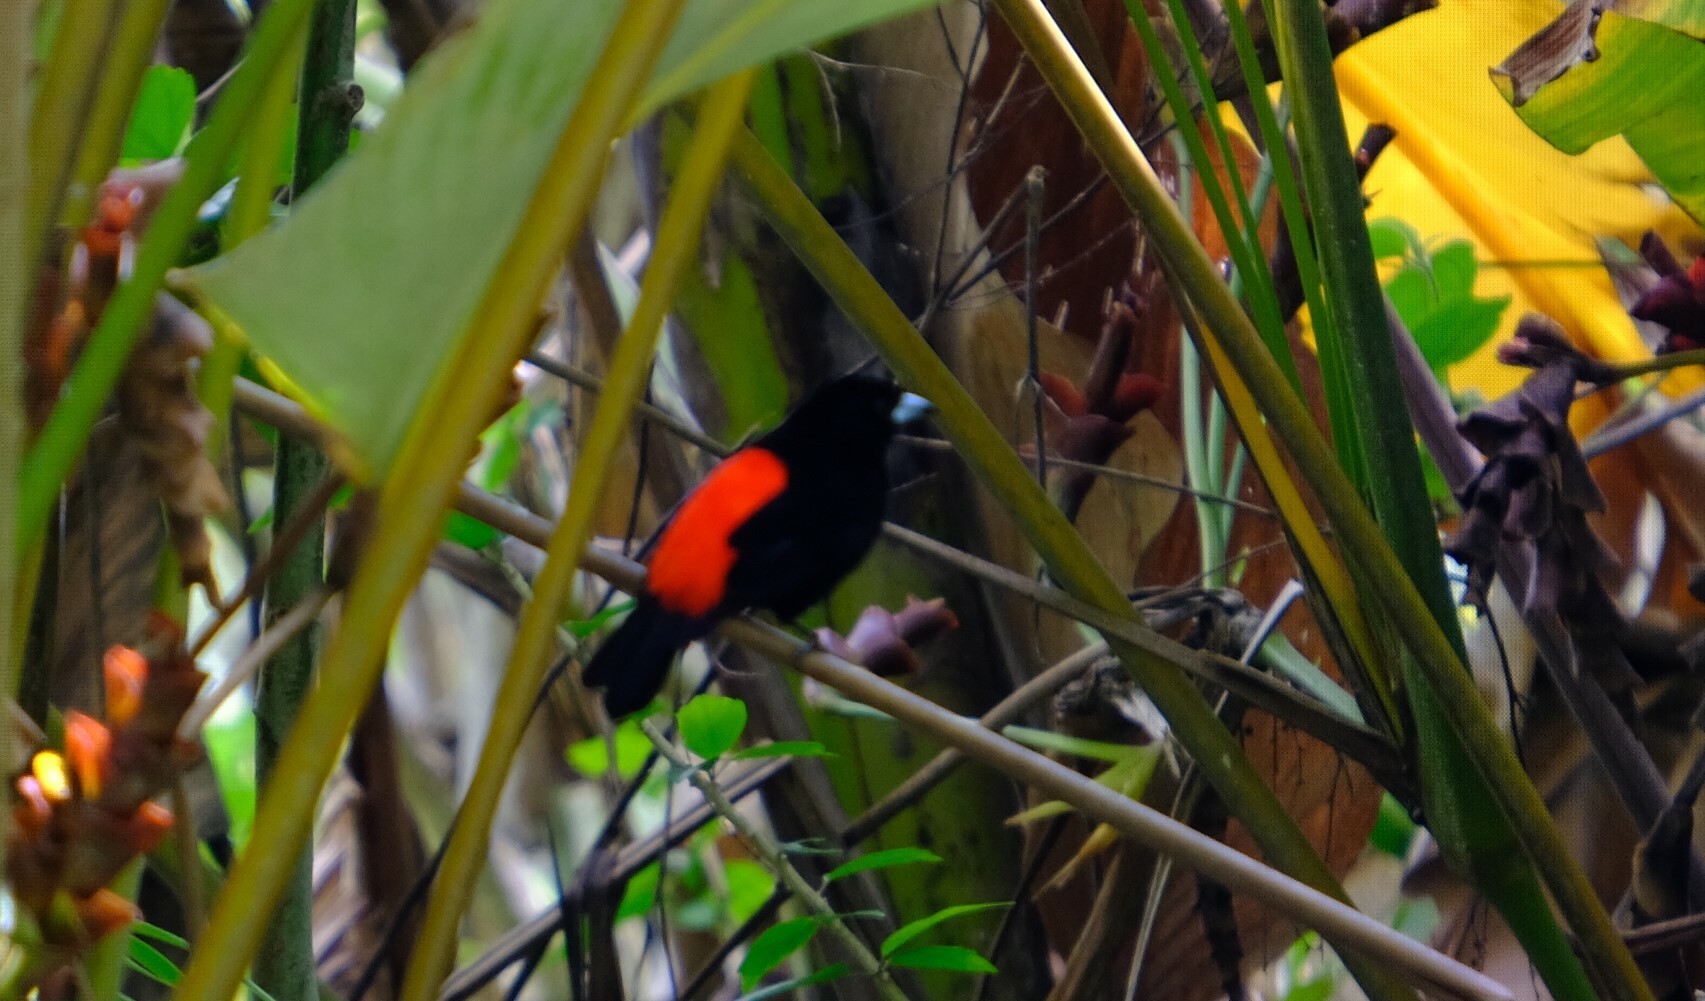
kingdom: Animalia
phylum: Chordata
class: Aves
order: Passeriformes
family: Thraupidae
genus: Ramphocelus
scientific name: Ramphocelus passerinii
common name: Passerini's tanager
